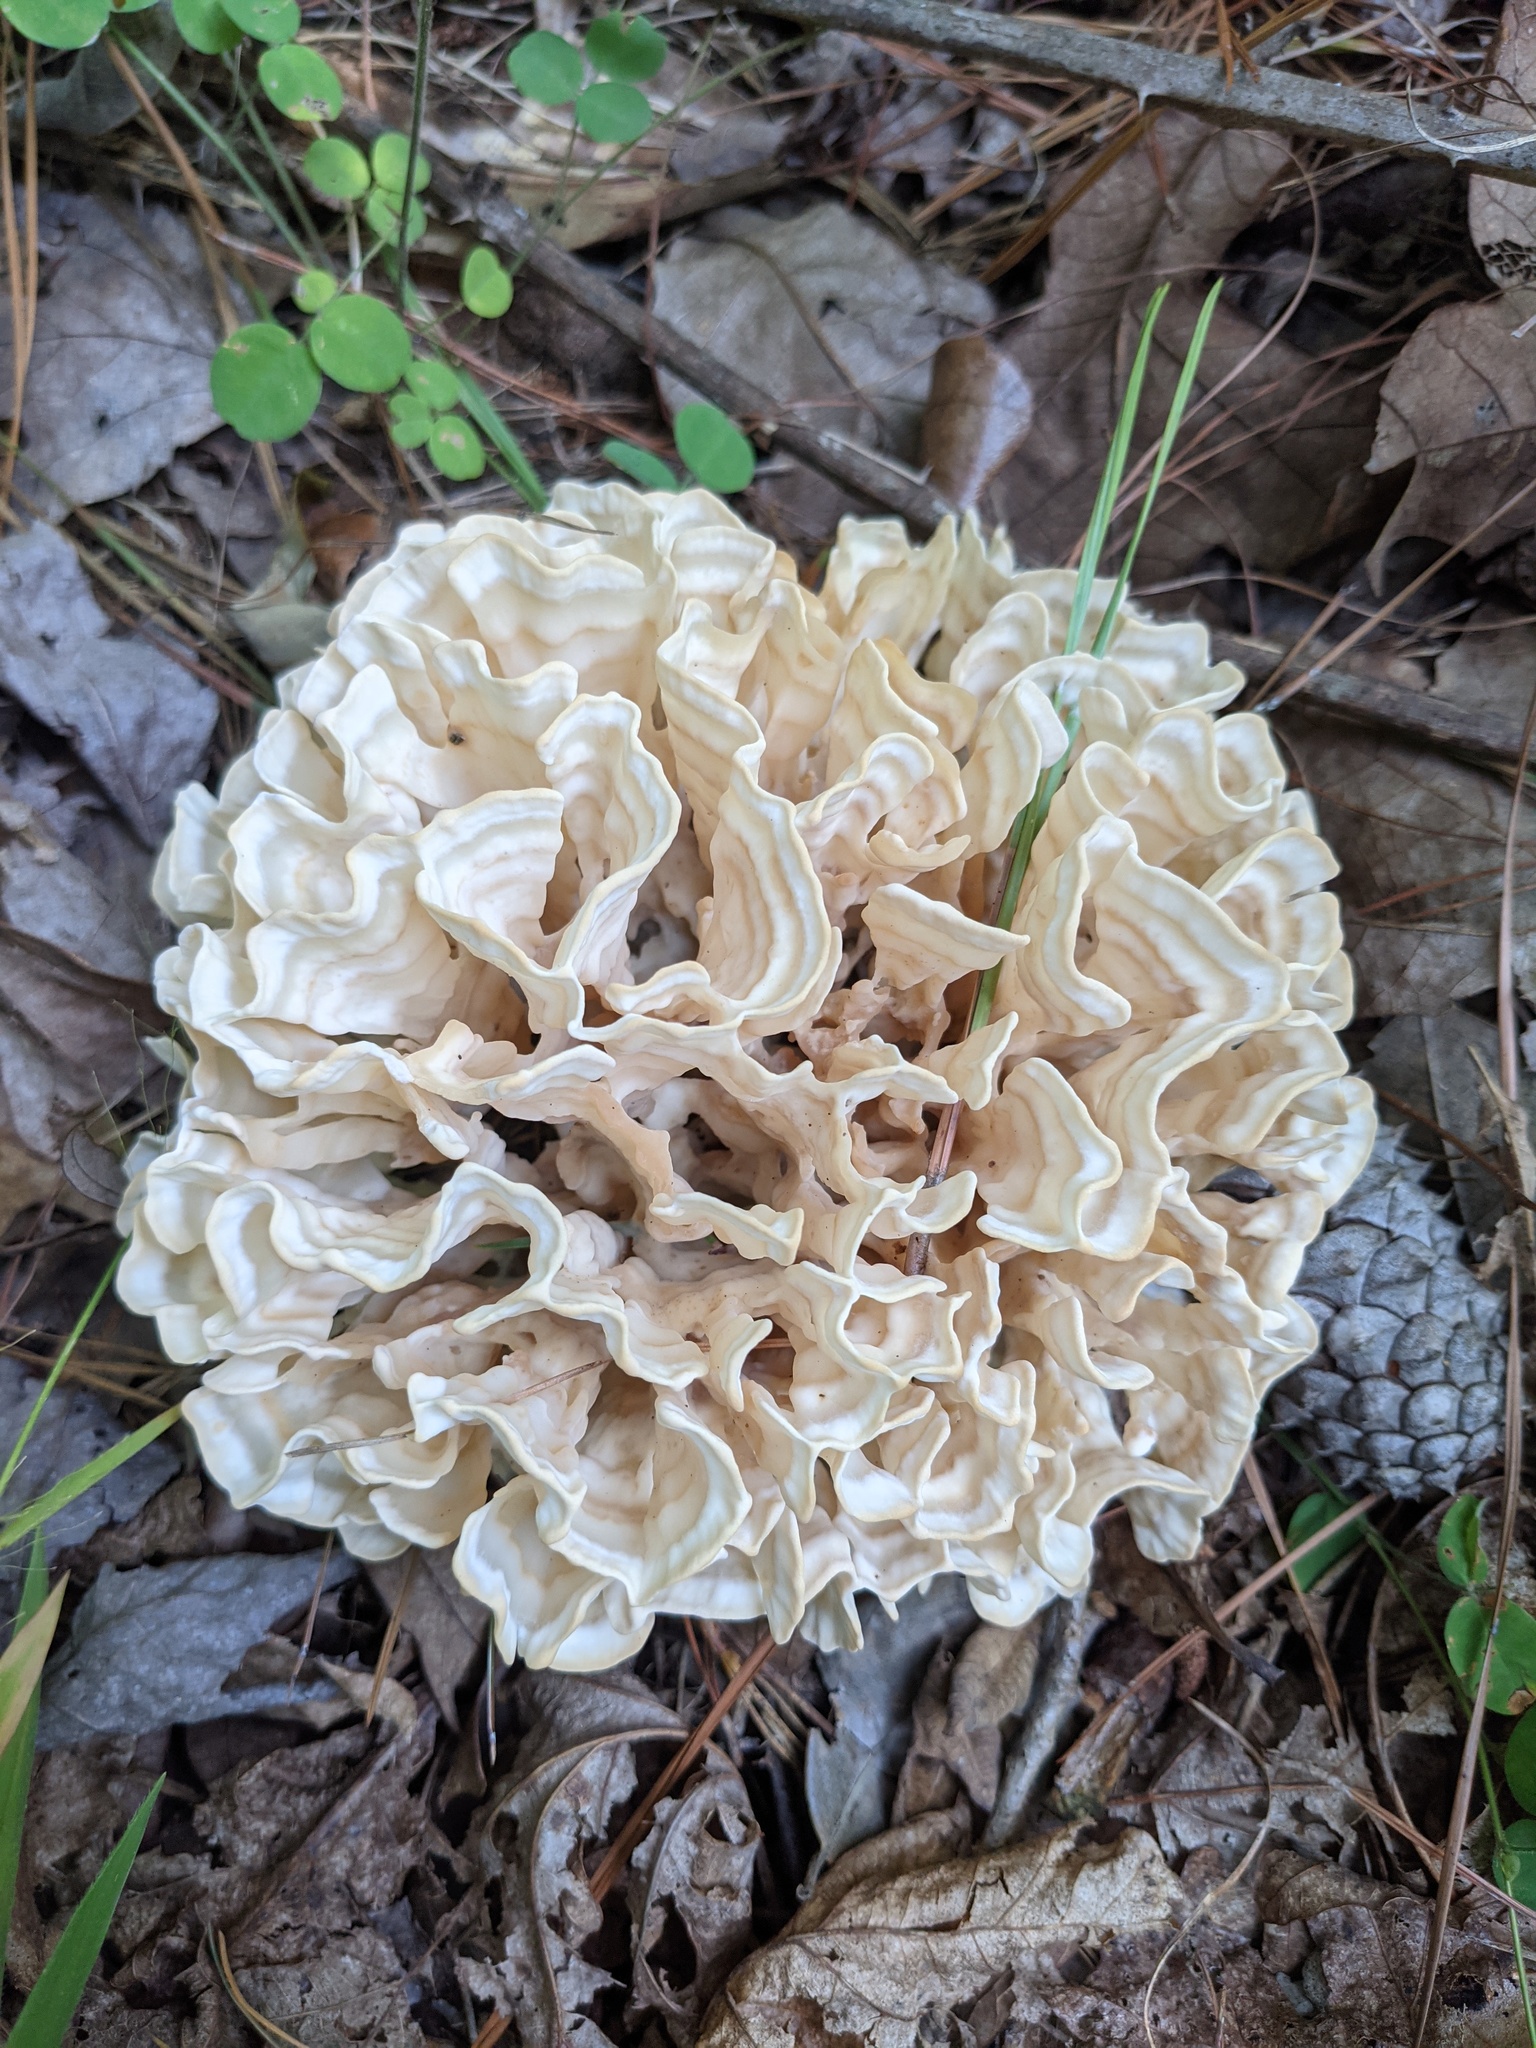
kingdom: Fungi
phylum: Basidiomycota
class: Agaricomycetes
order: Polyporales
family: Sparassidaceae
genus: Sparassis
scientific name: Sparassis spathulata
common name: Eastern cauliflower mushroom
